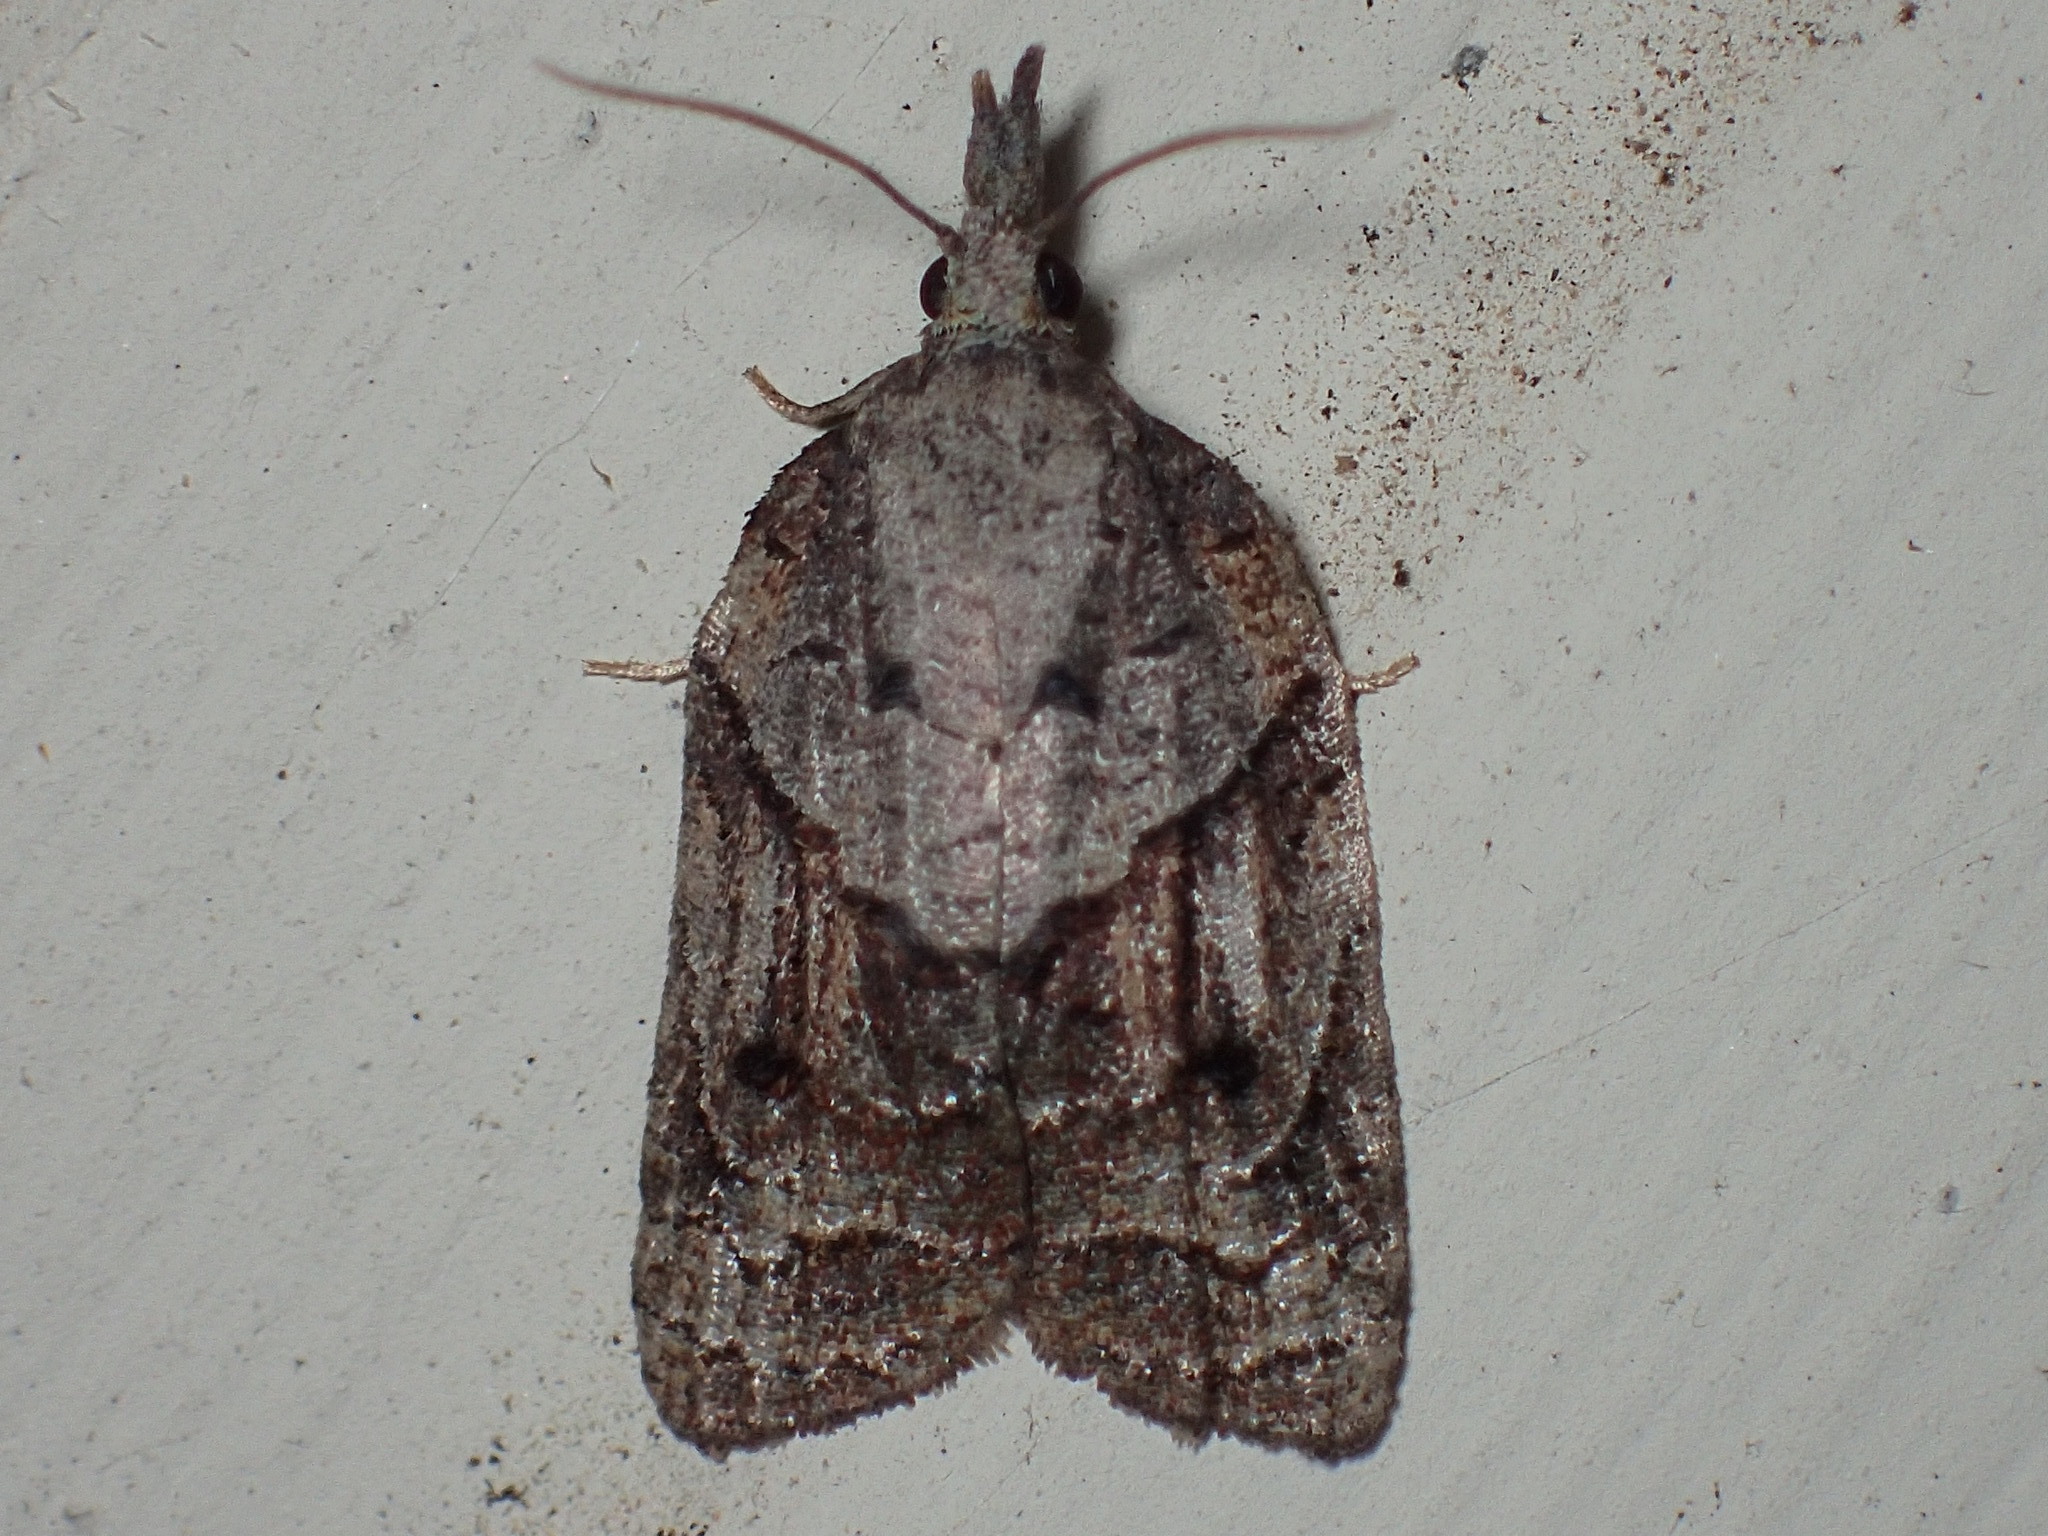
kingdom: Animalia
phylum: Arthropoda
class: Insecta
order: Lepidoptera
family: Tortricidae
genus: Platynota
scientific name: Platynota idaeusalis
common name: Tufted apple bud moth
